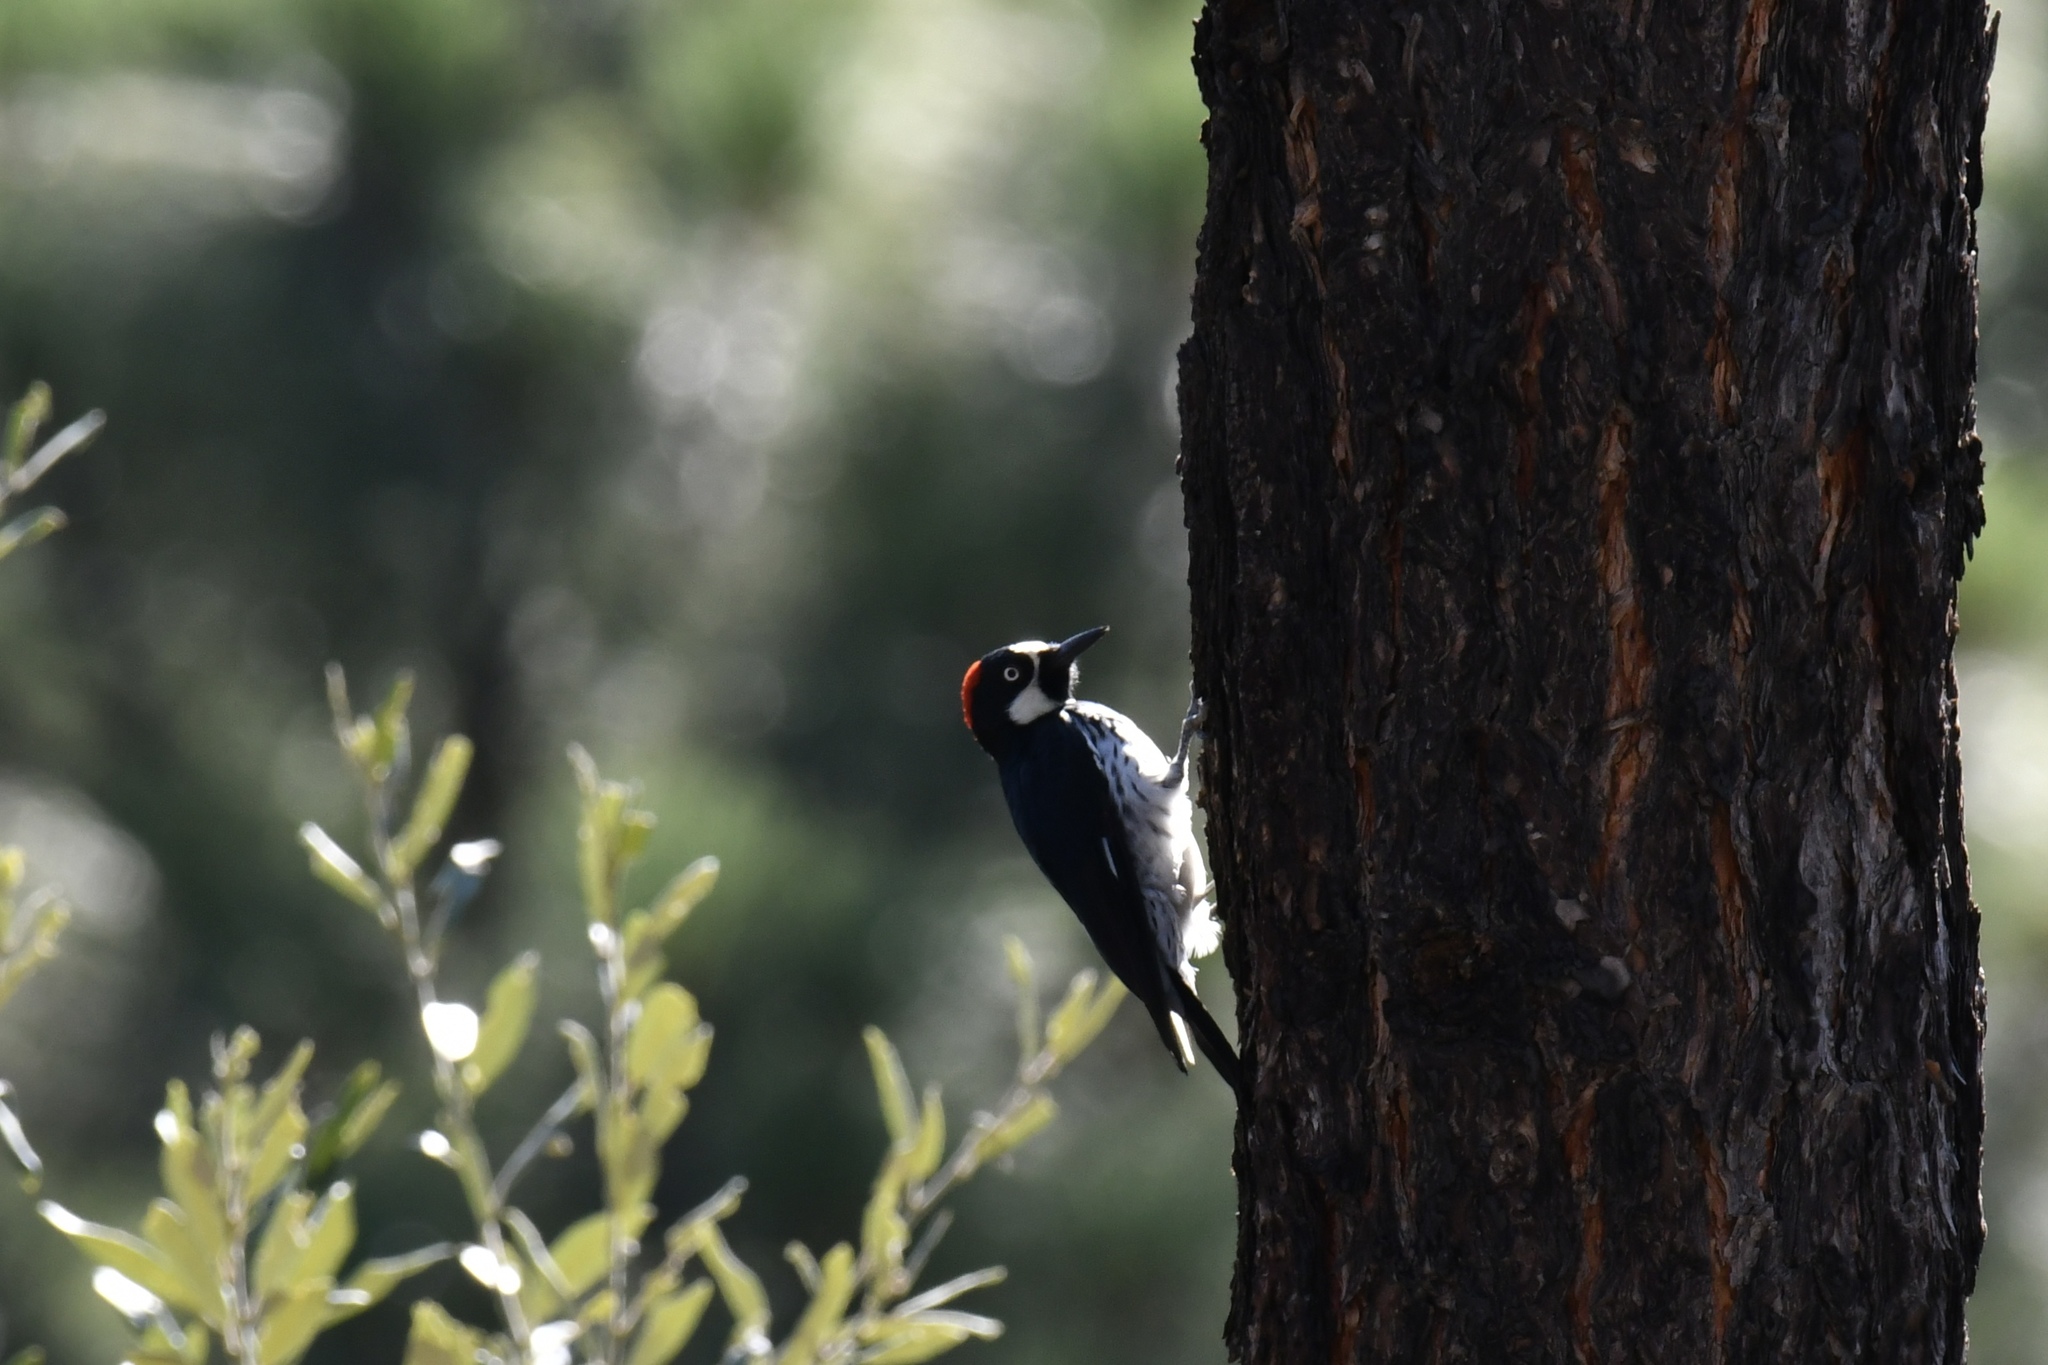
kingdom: Animalia
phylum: Chordata
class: Aves
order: Piciformes
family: Picidae
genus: Melanerpes
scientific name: Melanerpes formicivorus
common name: Acorn woodpecker
